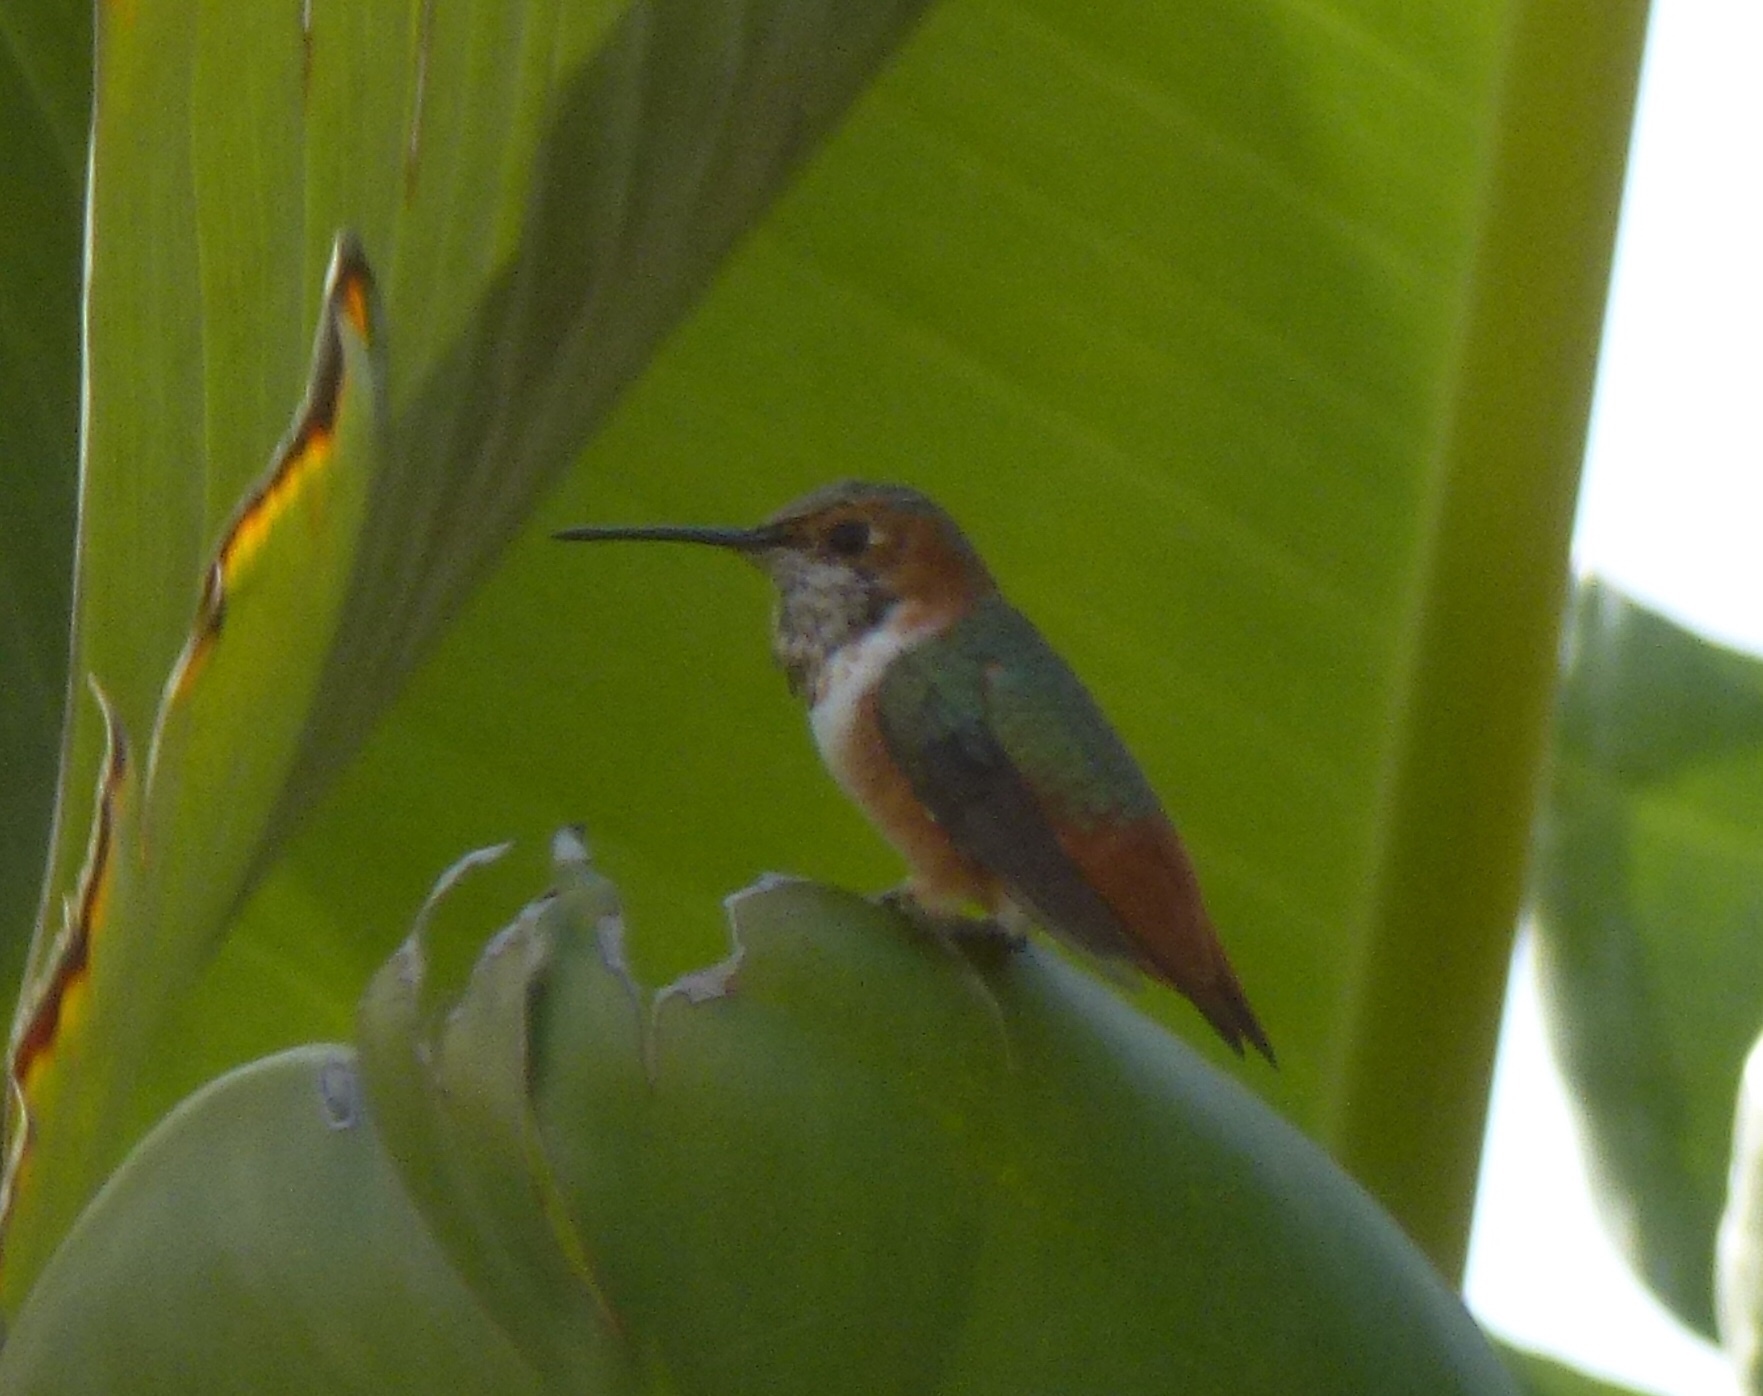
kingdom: Animalia
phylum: Chordata
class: Aves
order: Apodiformes
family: Trochilidae
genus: Selasphorus
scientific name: Selasphorus sasin
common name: Allen's hummingbird
